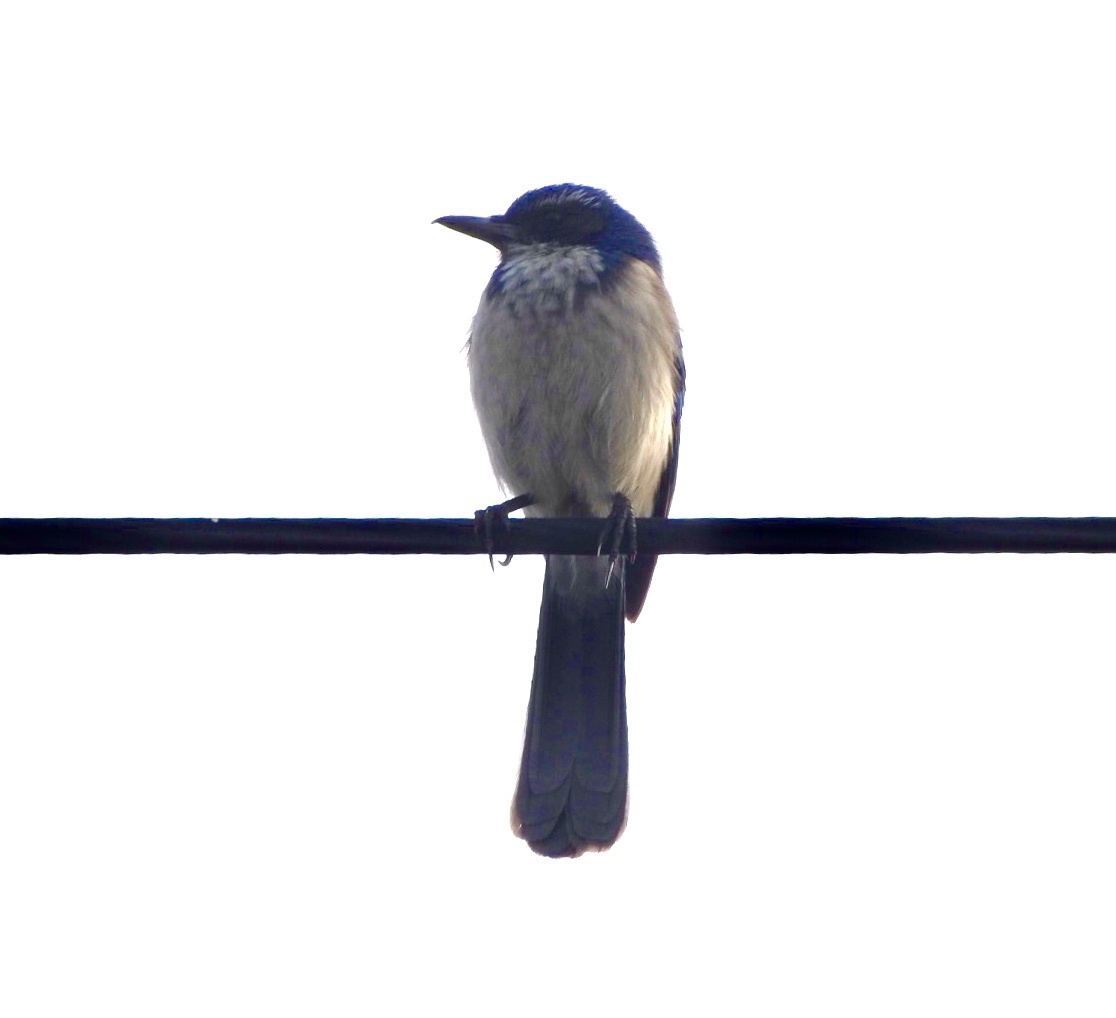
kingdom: Animalia
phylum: Chordata
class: Aves
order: Passeriformes
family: Corvidae
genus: Aphelocoma
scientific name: Aphelocoma californica
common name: California scrub-jay
